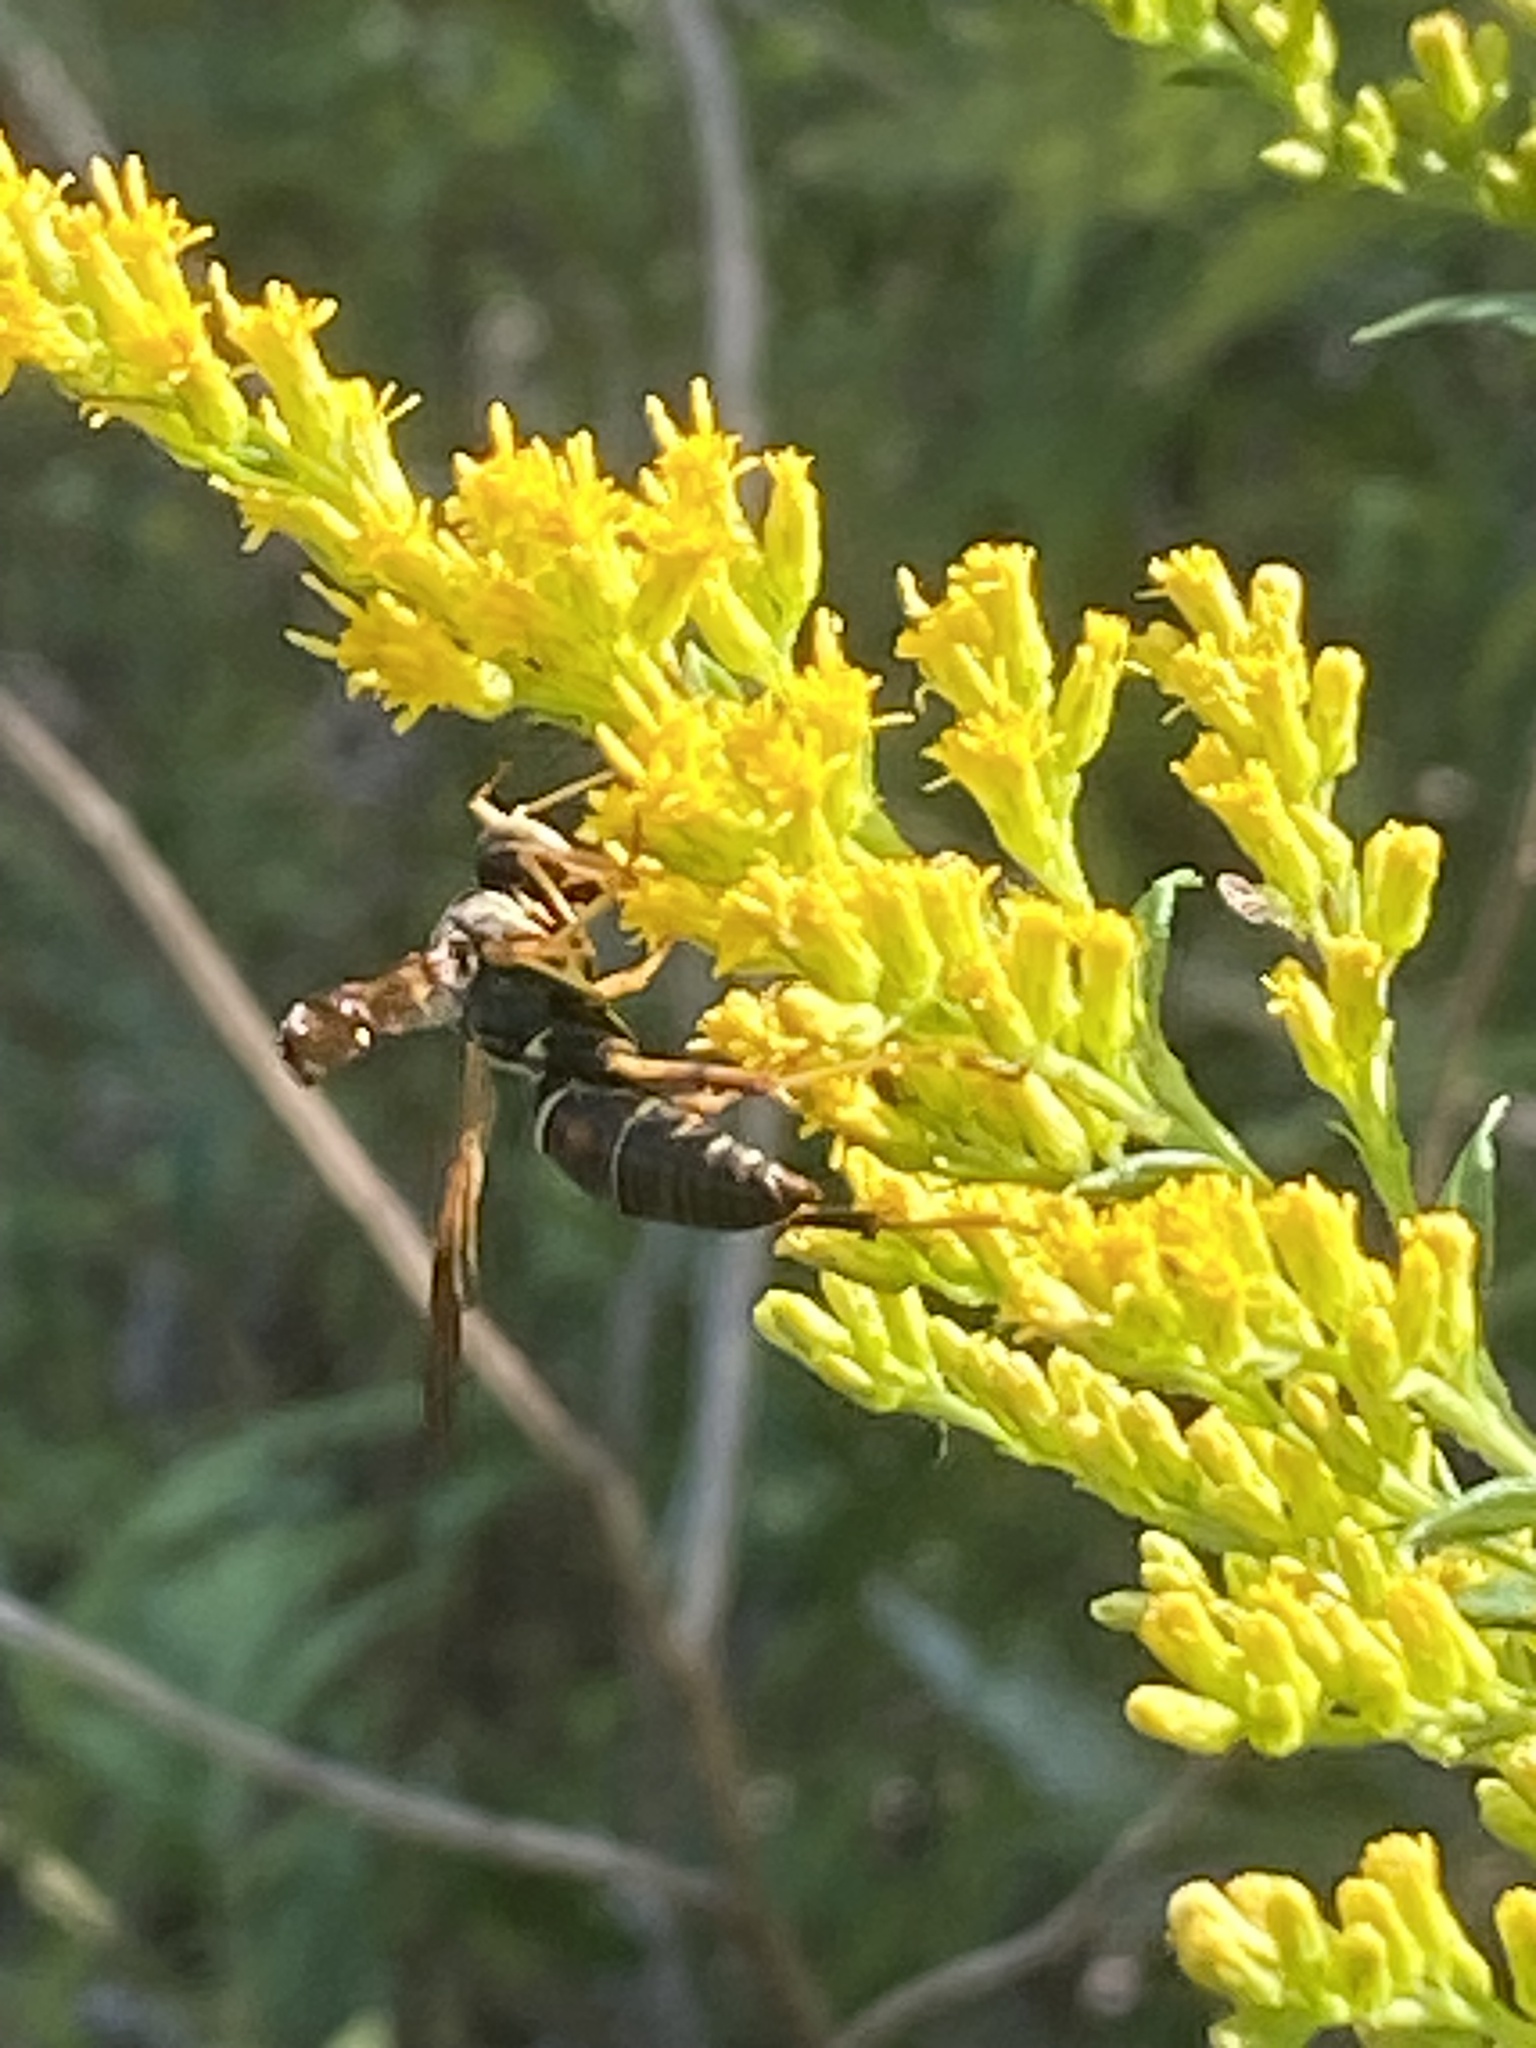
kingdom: Animalia
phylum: Arthropoda
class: Insecta
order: Hymenoptera
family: Eumenidae
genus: Polistes
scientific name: Polistes fuscatus
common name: Dark paper wasp
